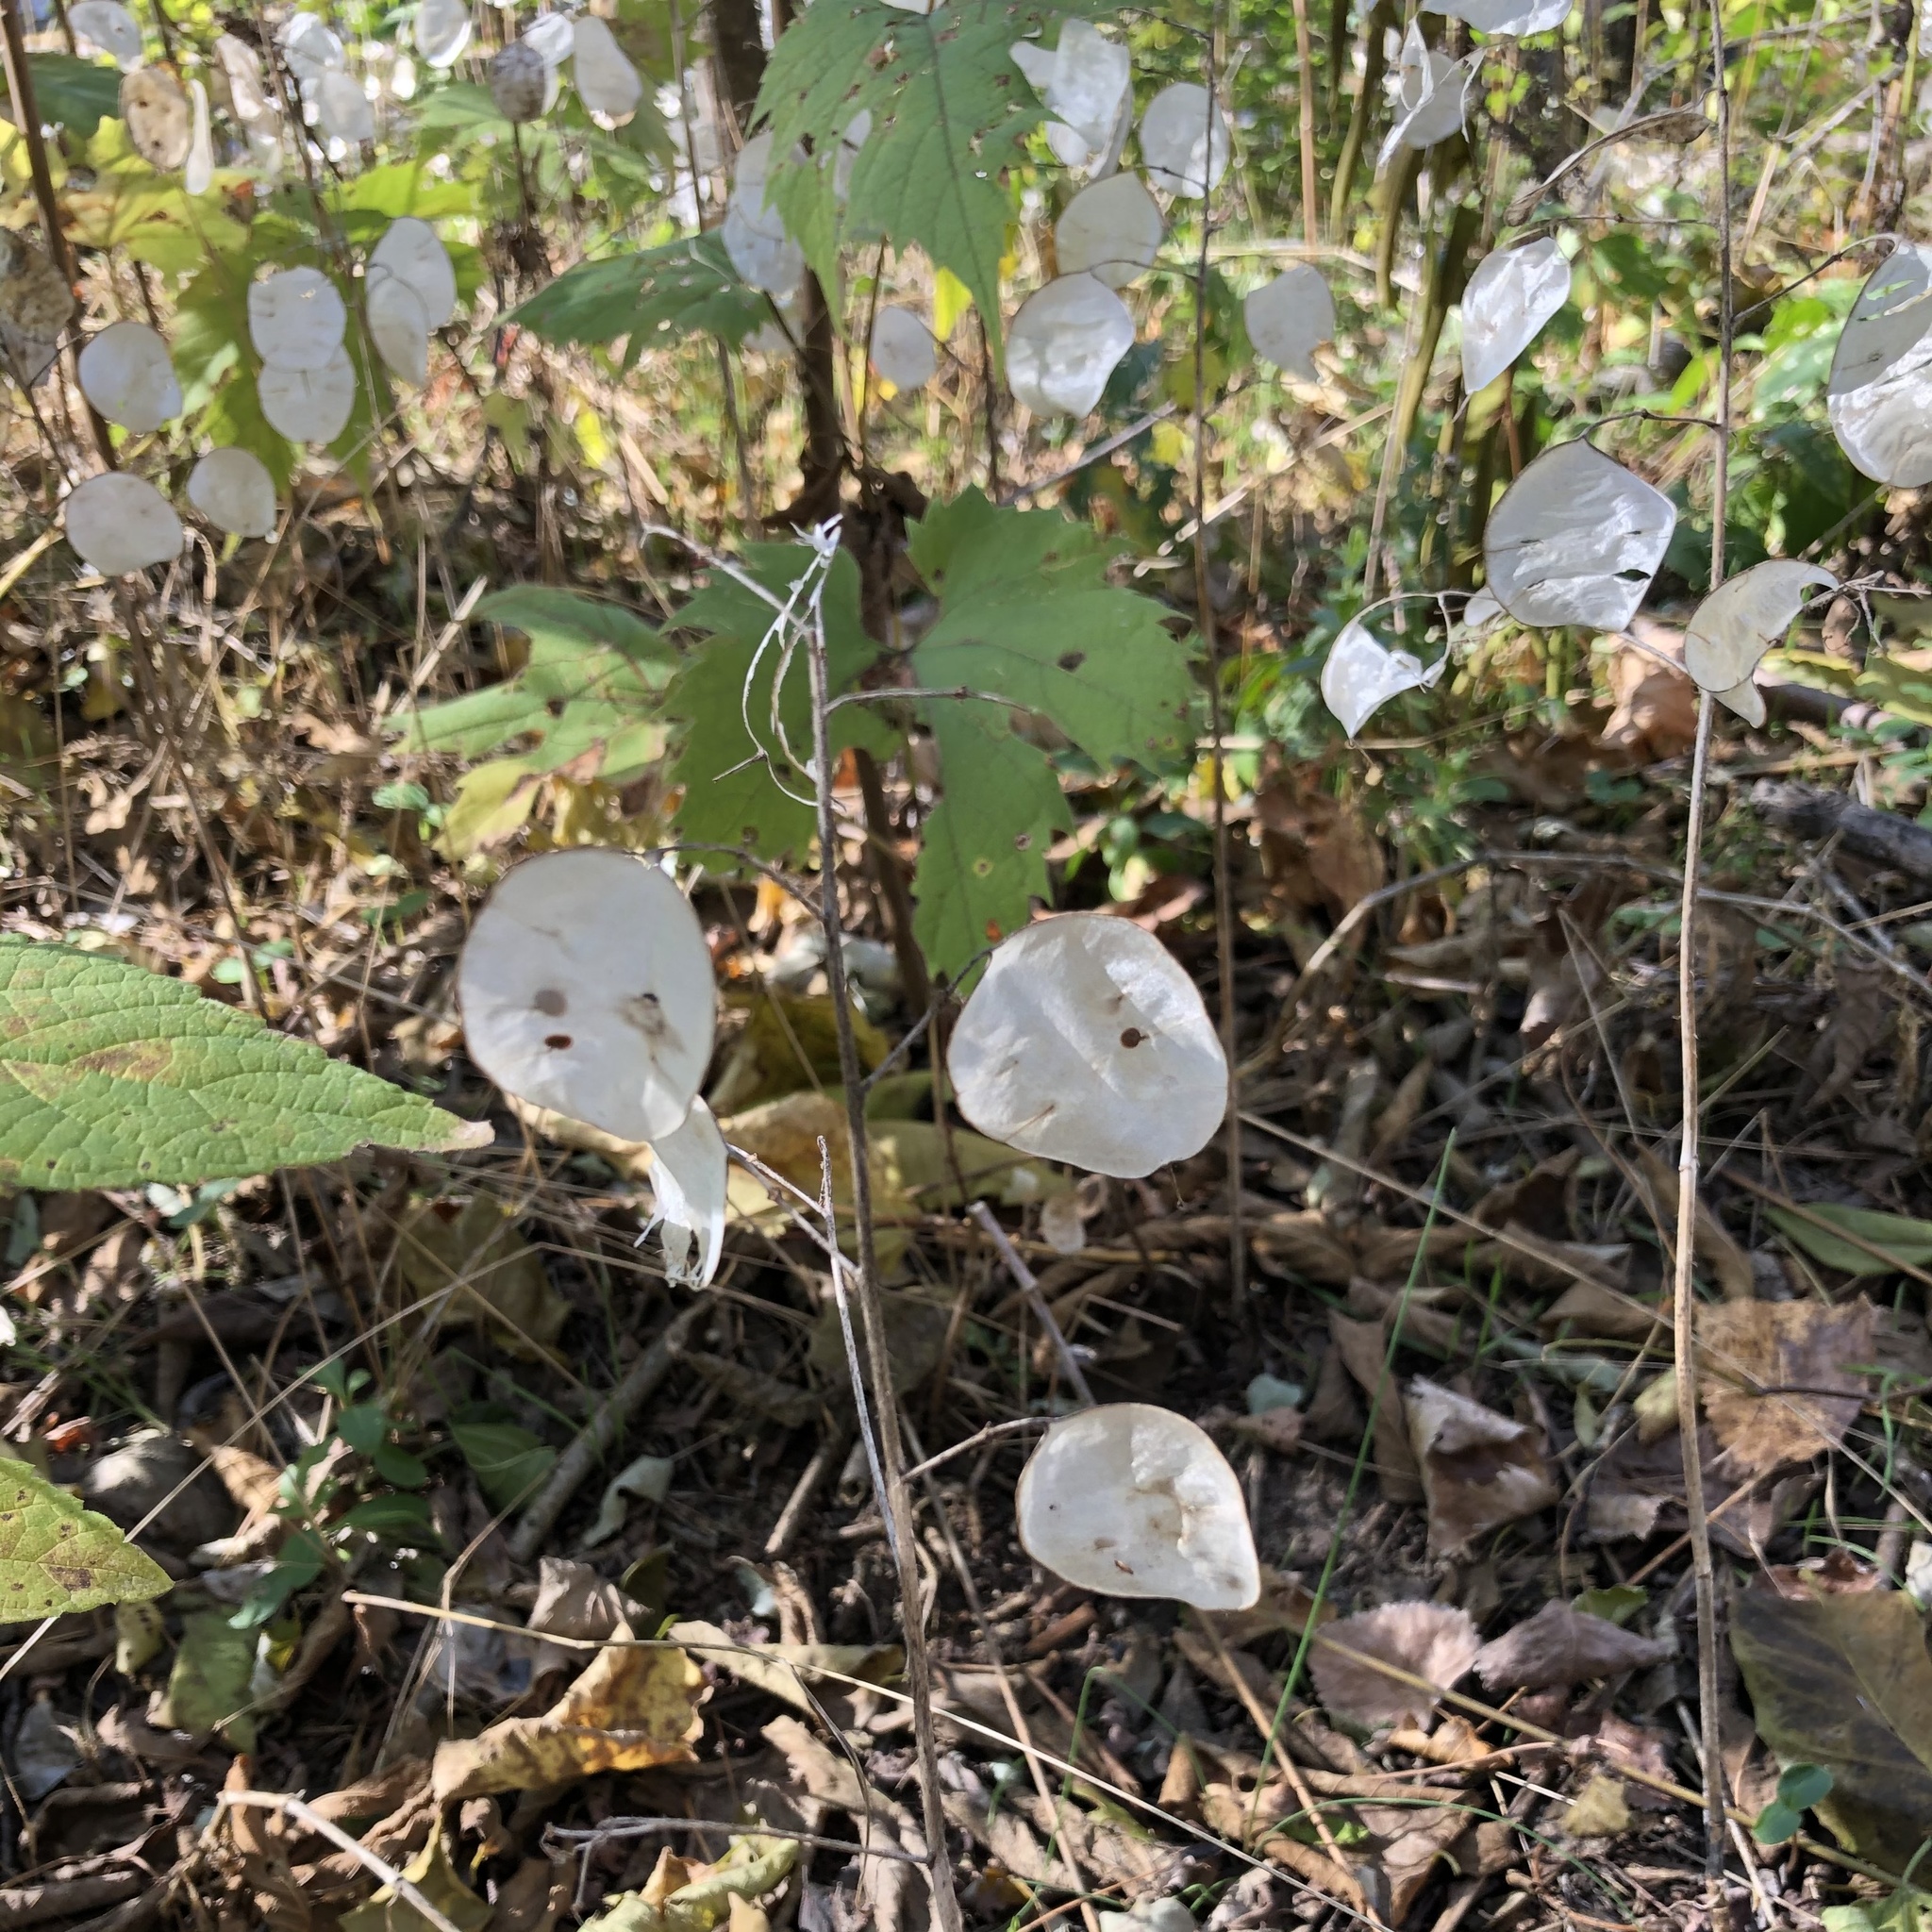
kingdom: Plantae
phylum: Tracheophyta
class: Magnoliopsida
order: Brassicales
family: Brassicaceae
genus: Lunaria
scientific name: Lunaria annua
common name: Honesty
